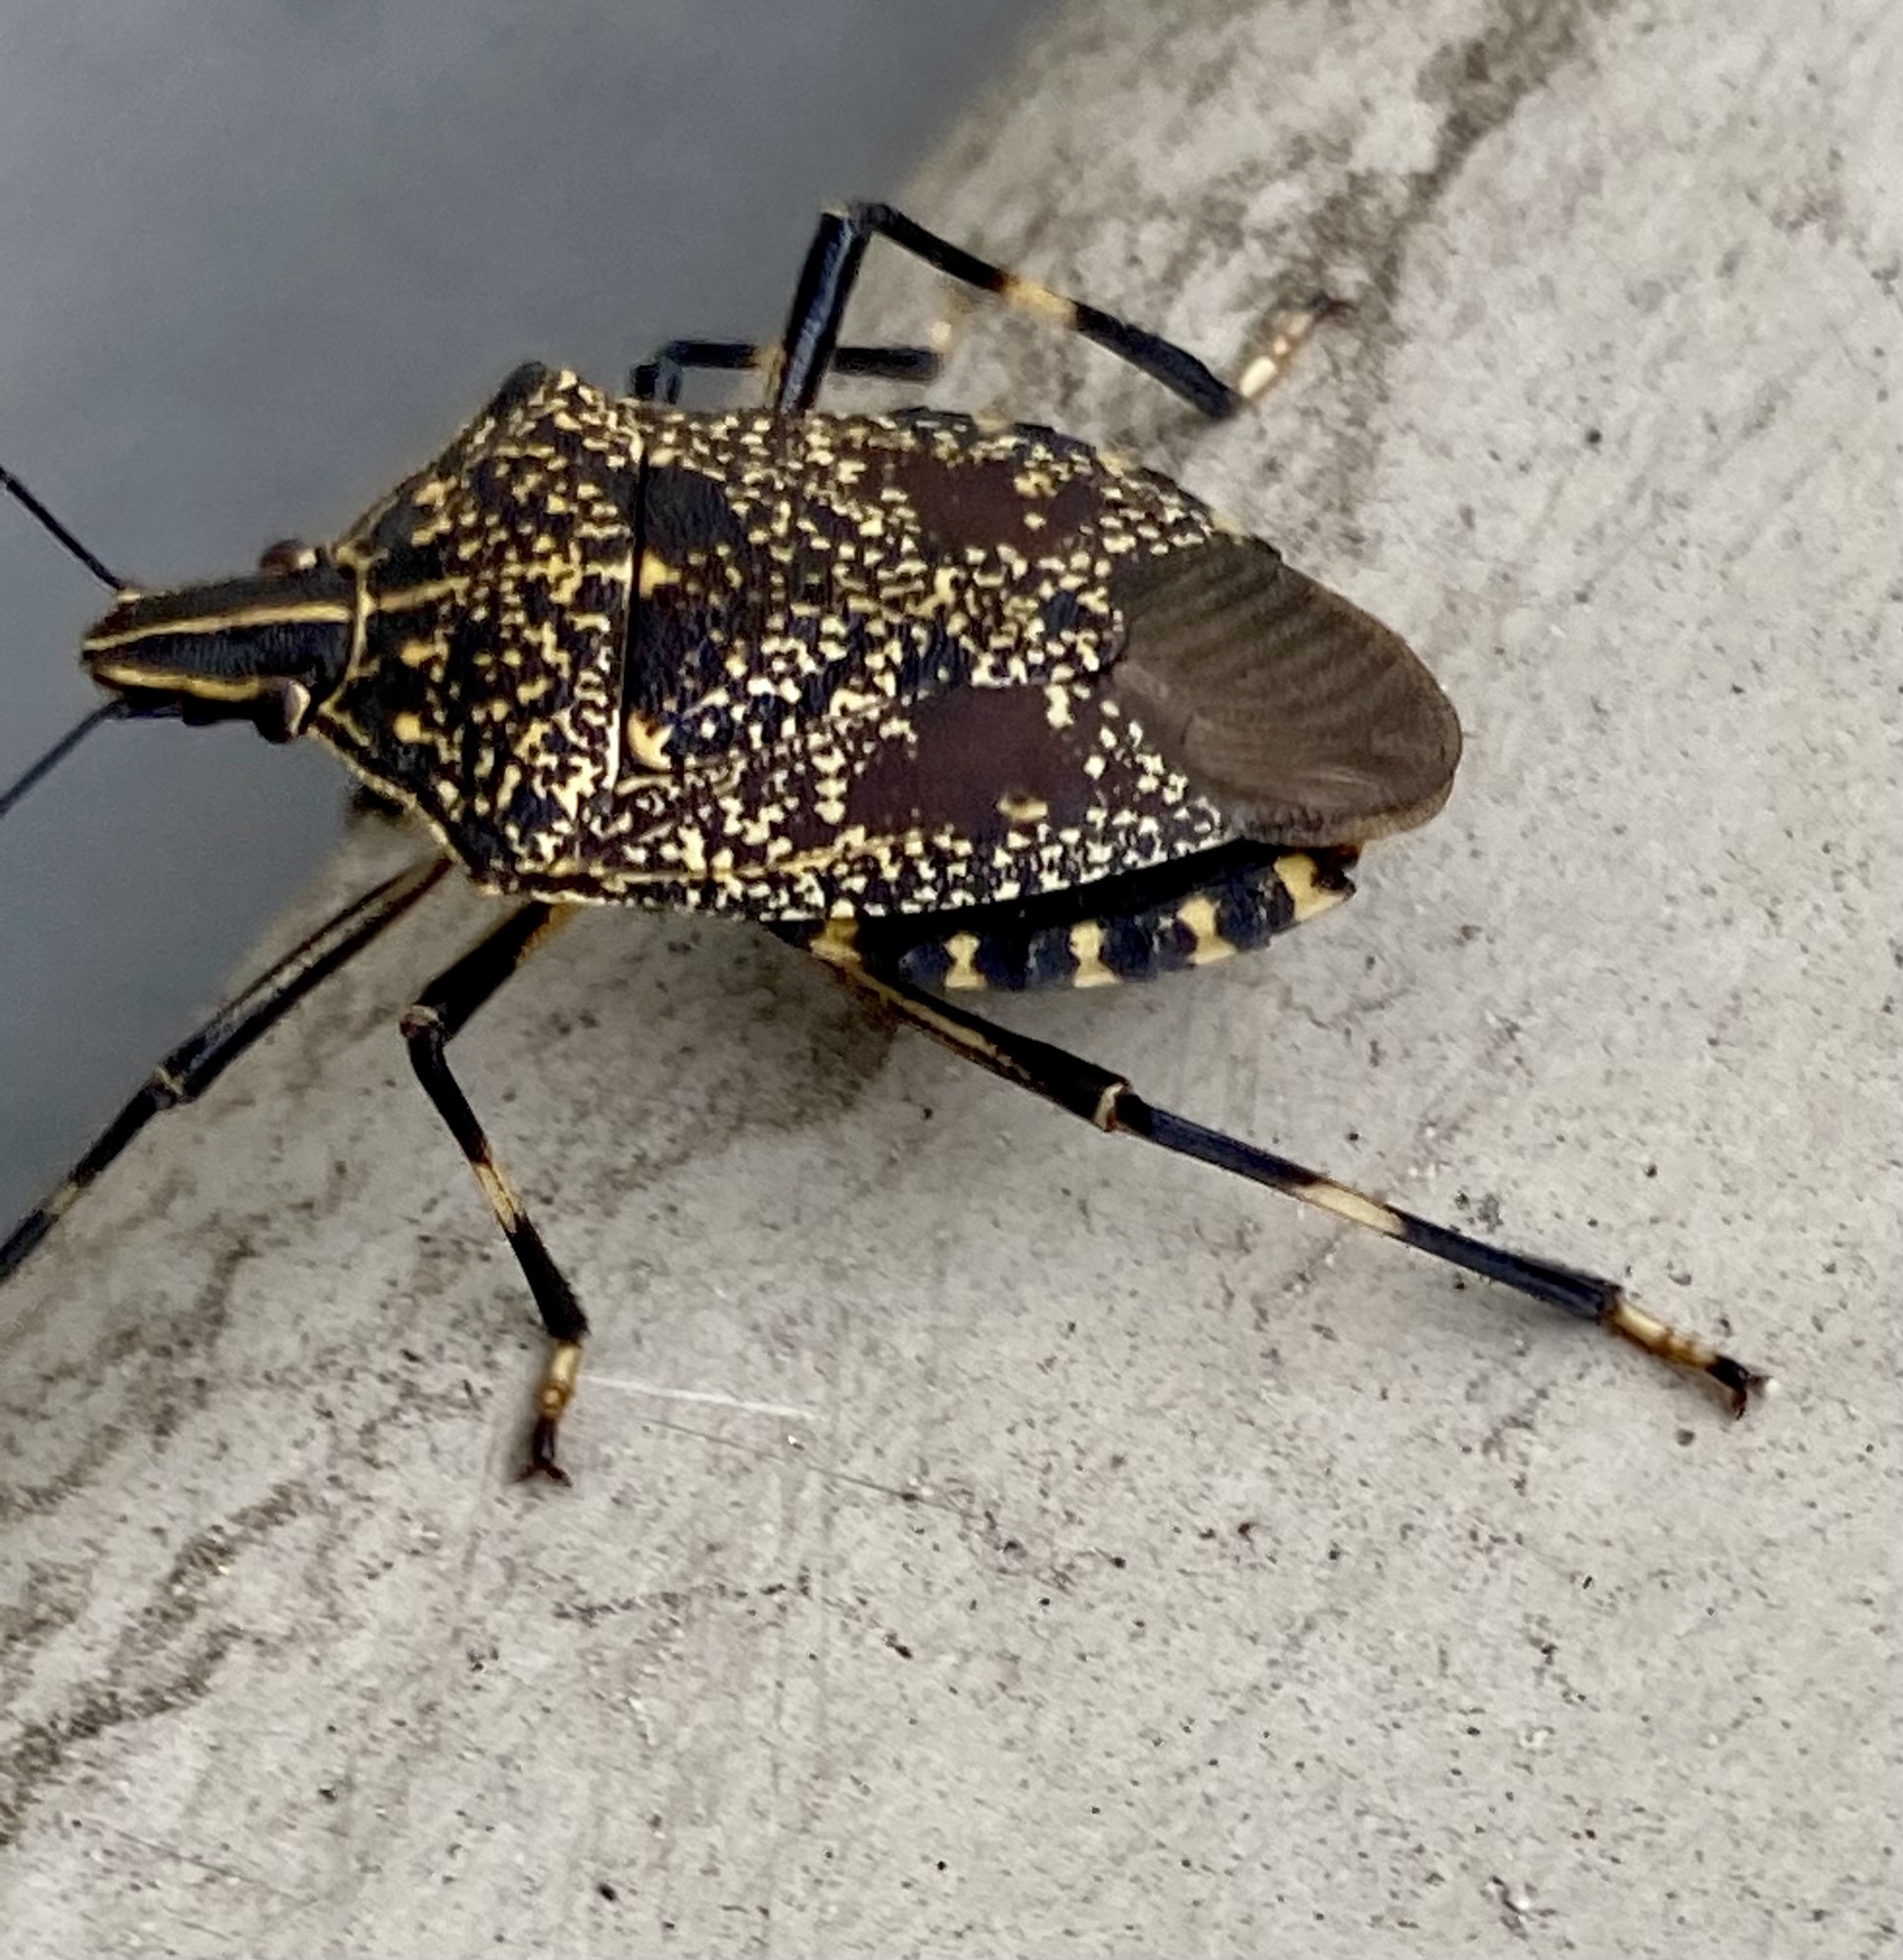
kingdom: Animalia
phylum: Arthropoda
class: Insecta
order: Hemiptera
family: Pentatomidae
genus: Erthesina
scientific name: Erthesina fullo
